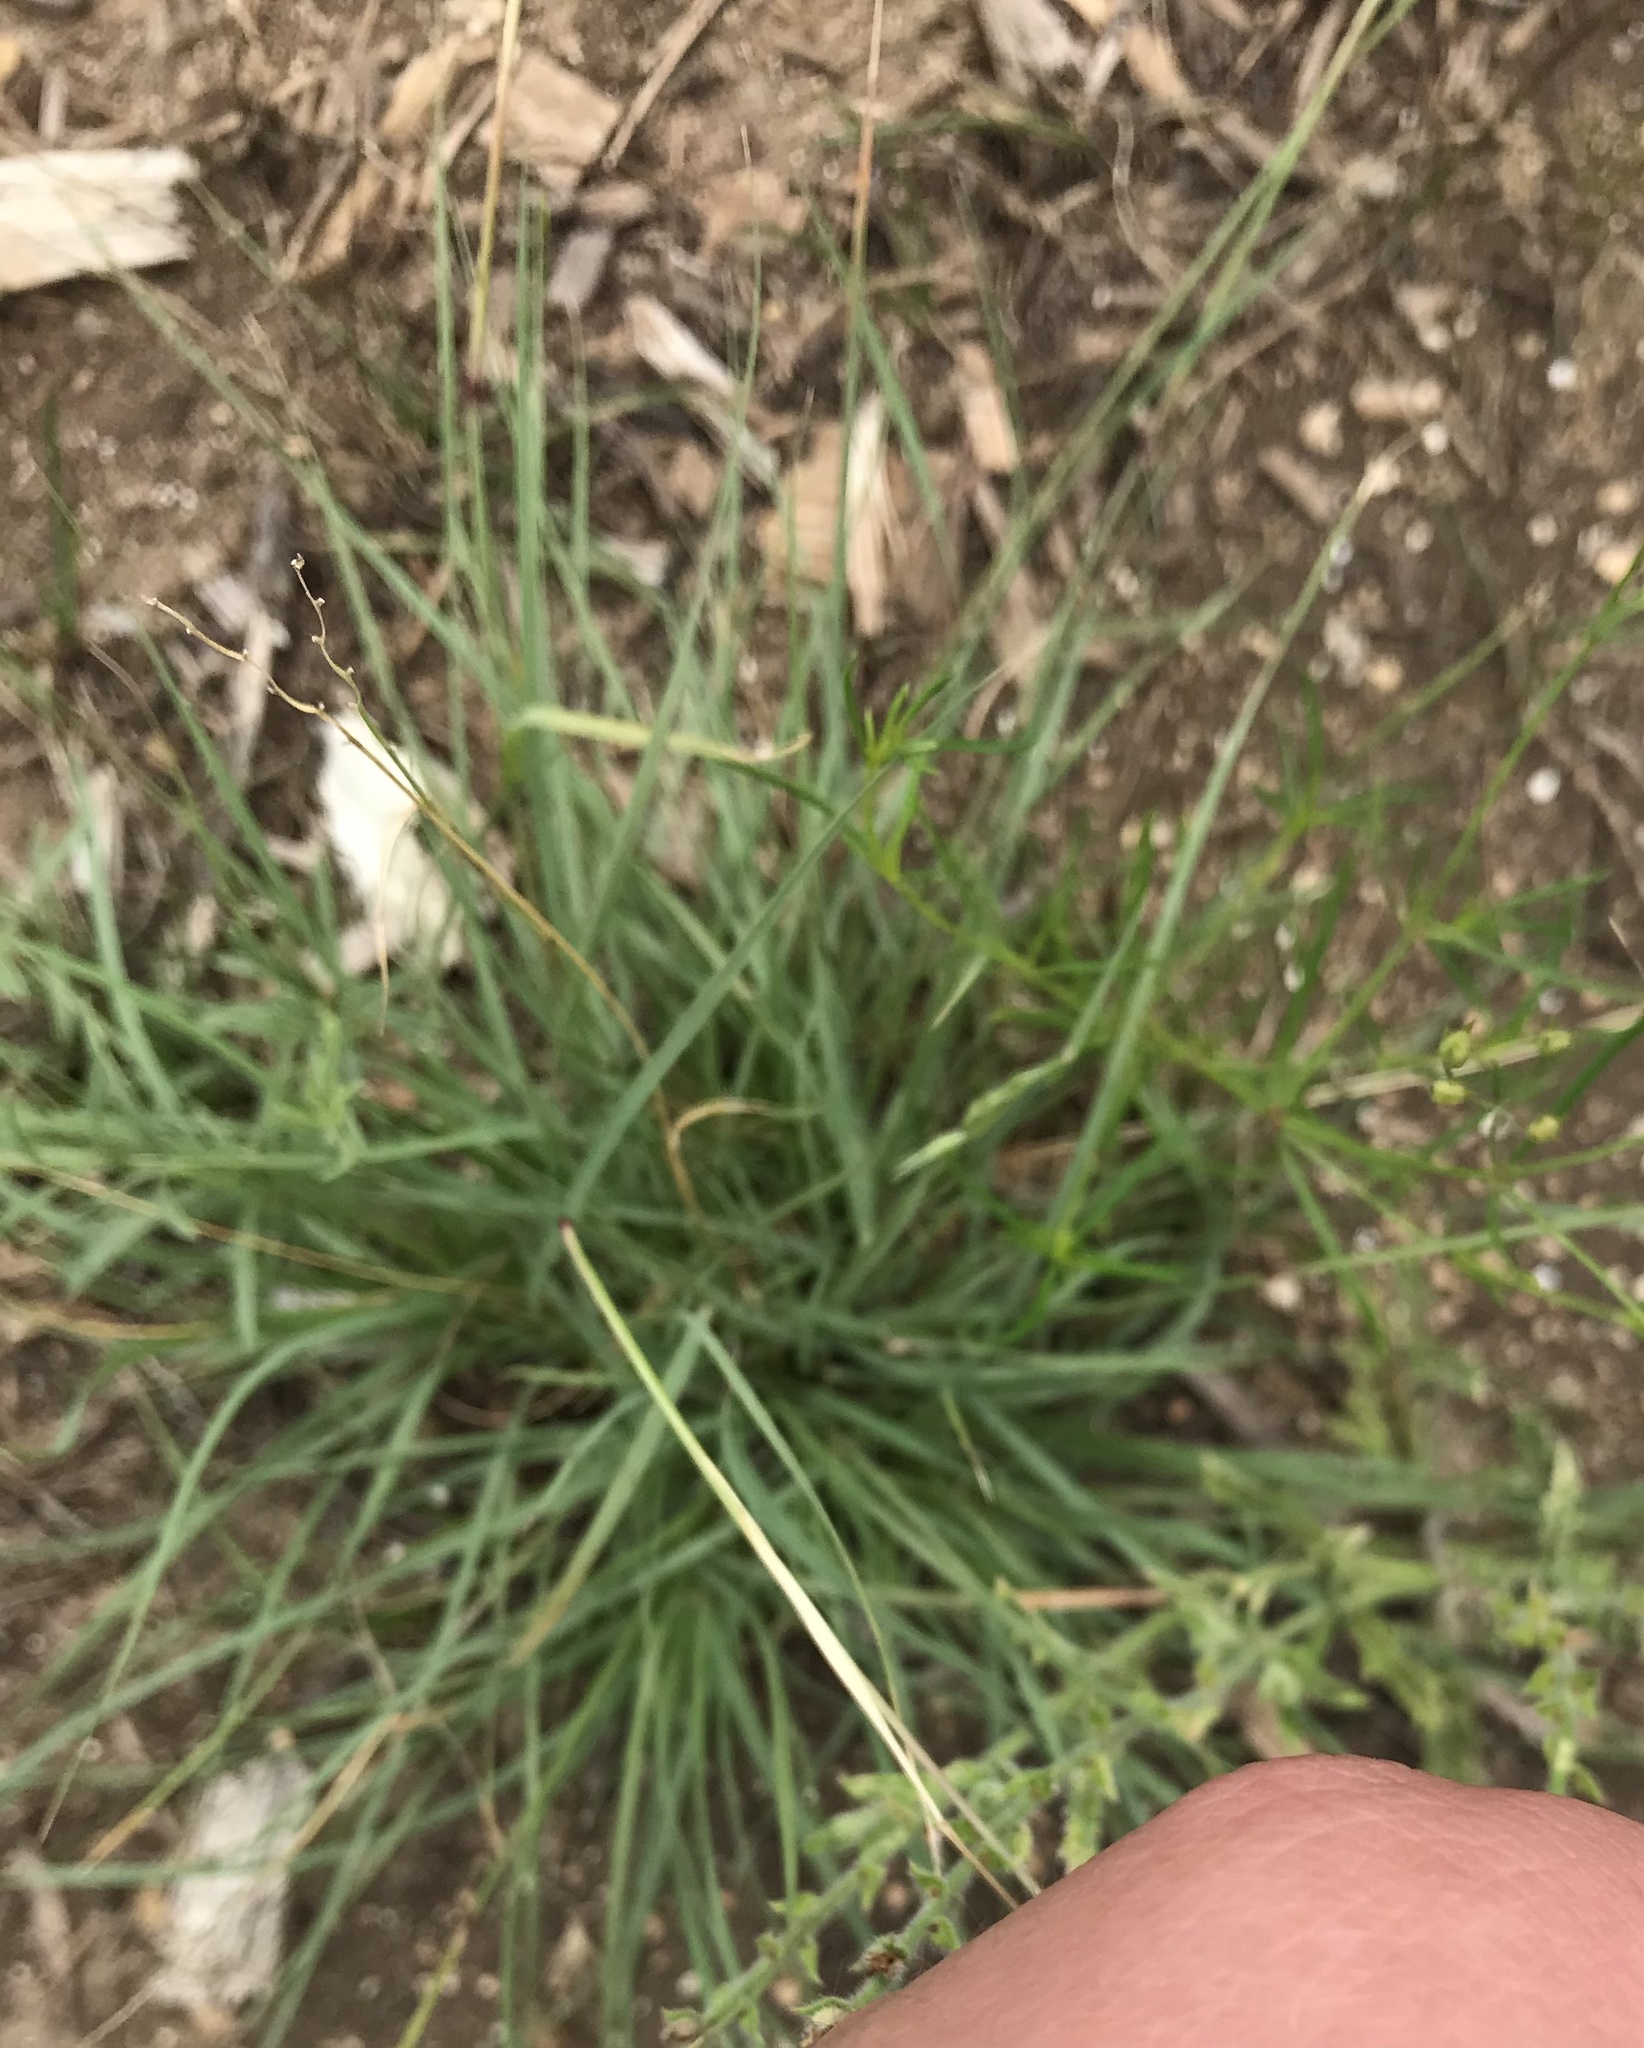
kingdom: Plantae
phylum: Tracheophyta
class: Liliopsida
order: Poales
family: Poaceae
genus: Bouteloua
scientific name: Bouteloua rigidiseta
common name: Texas grama
